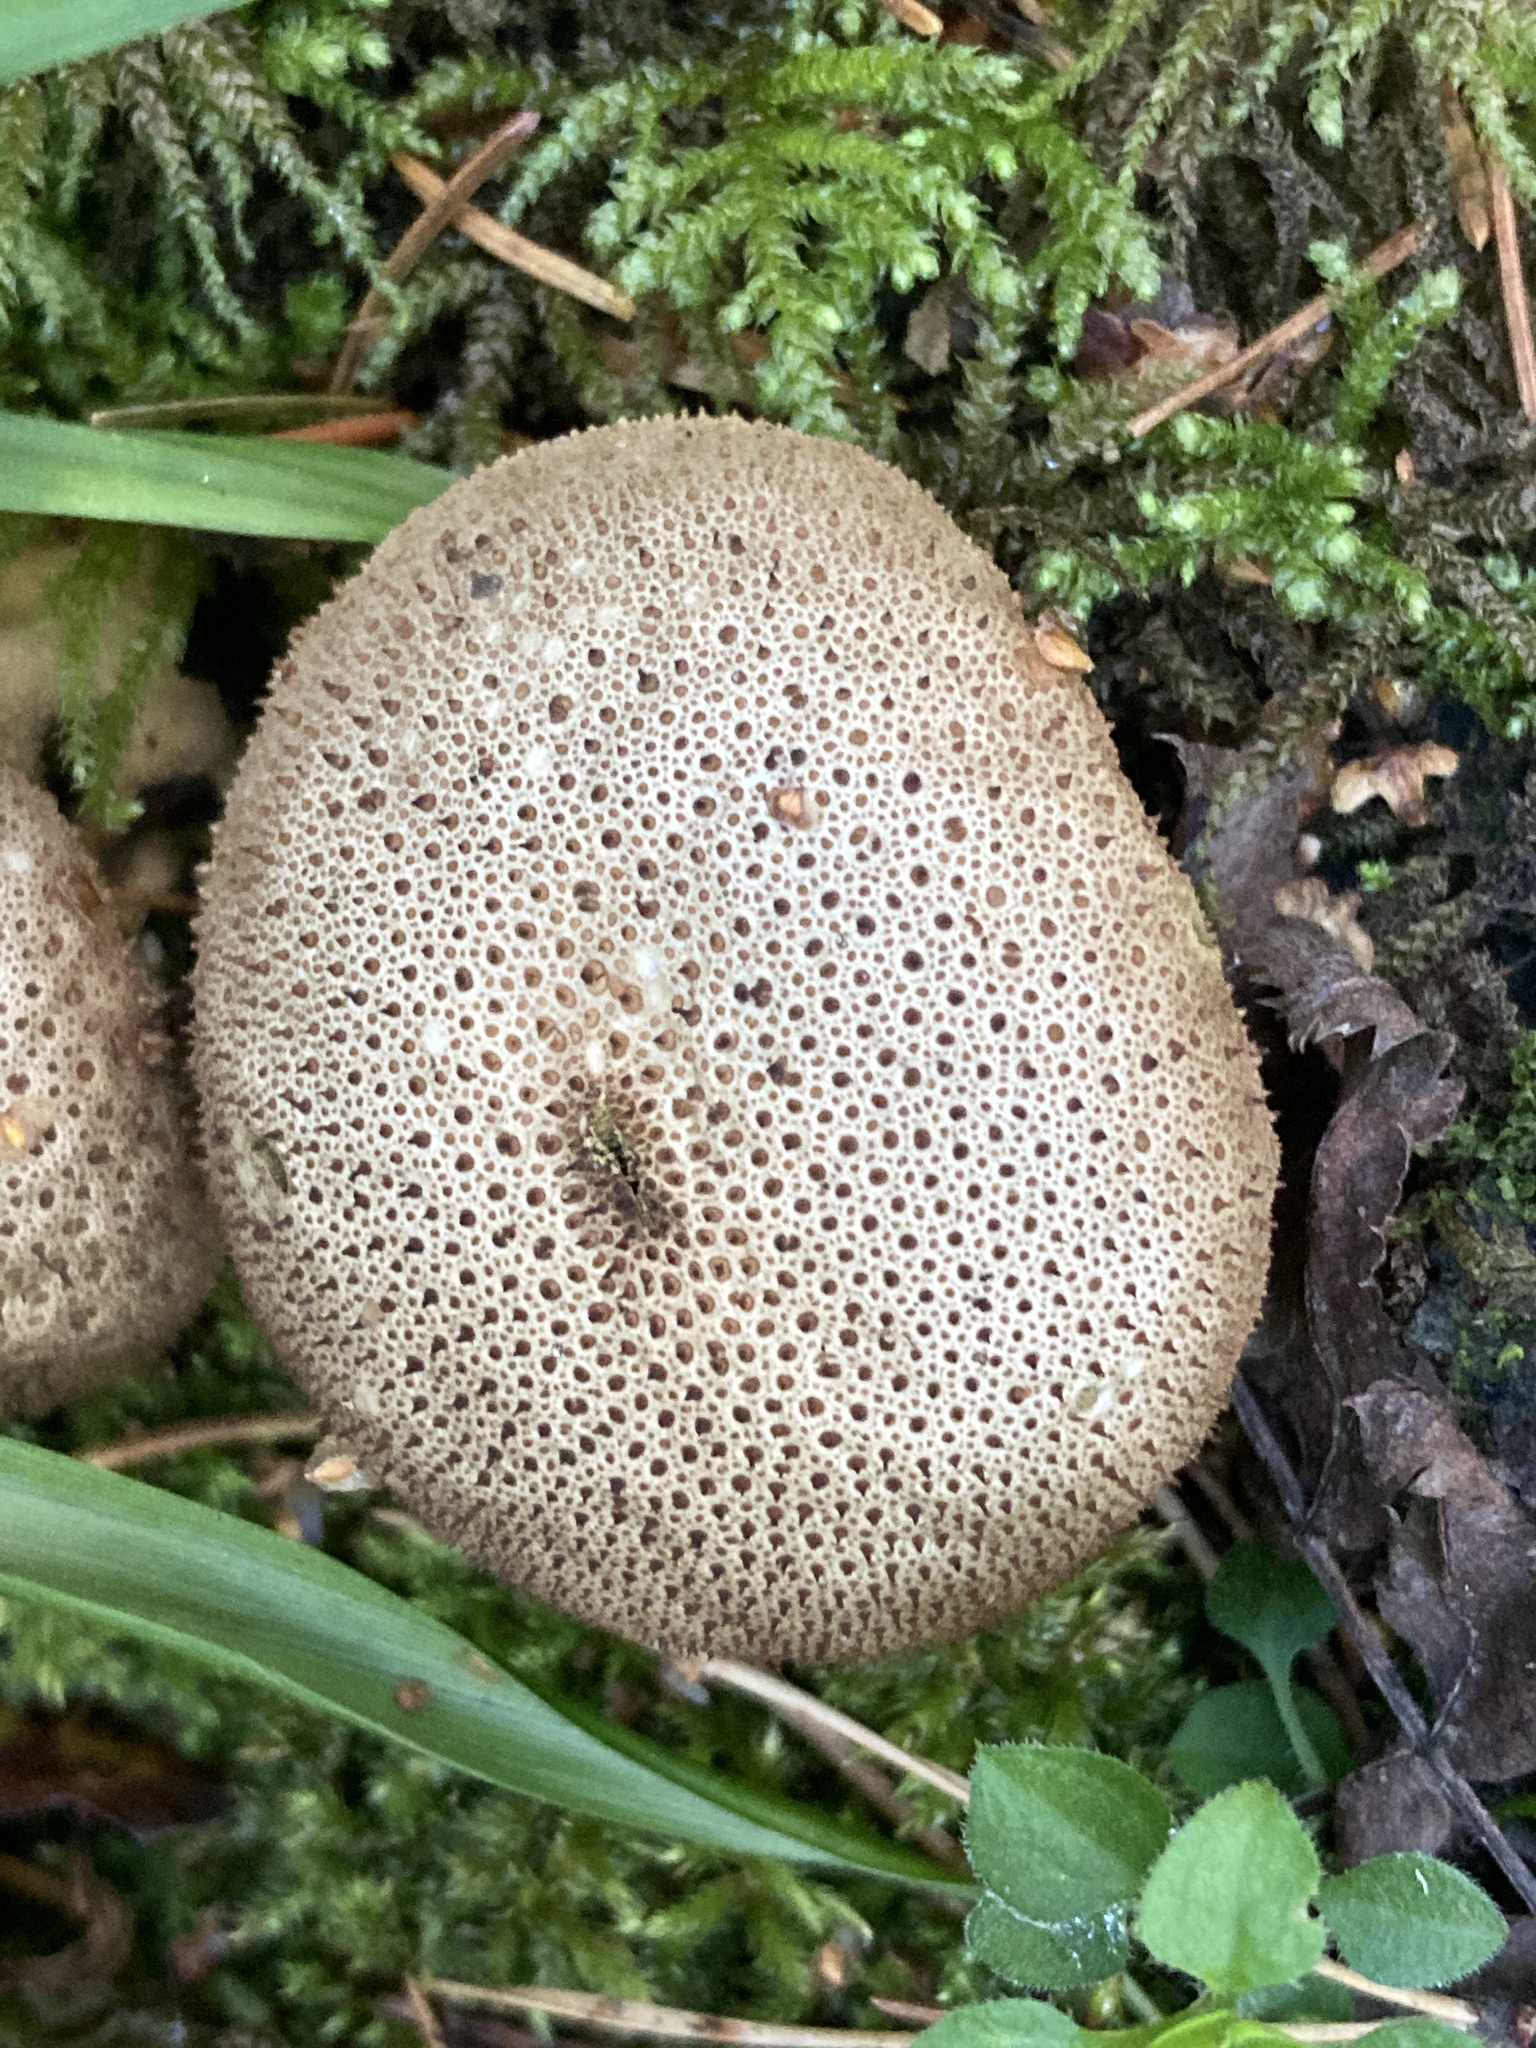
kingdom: Fungi
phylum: Basidiomycota
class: Agaricomycetes
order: Agaricales
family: Lycoperdaceae
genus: Lycoperdon
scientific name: Lycoperdon perlatum
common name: Common puffball
